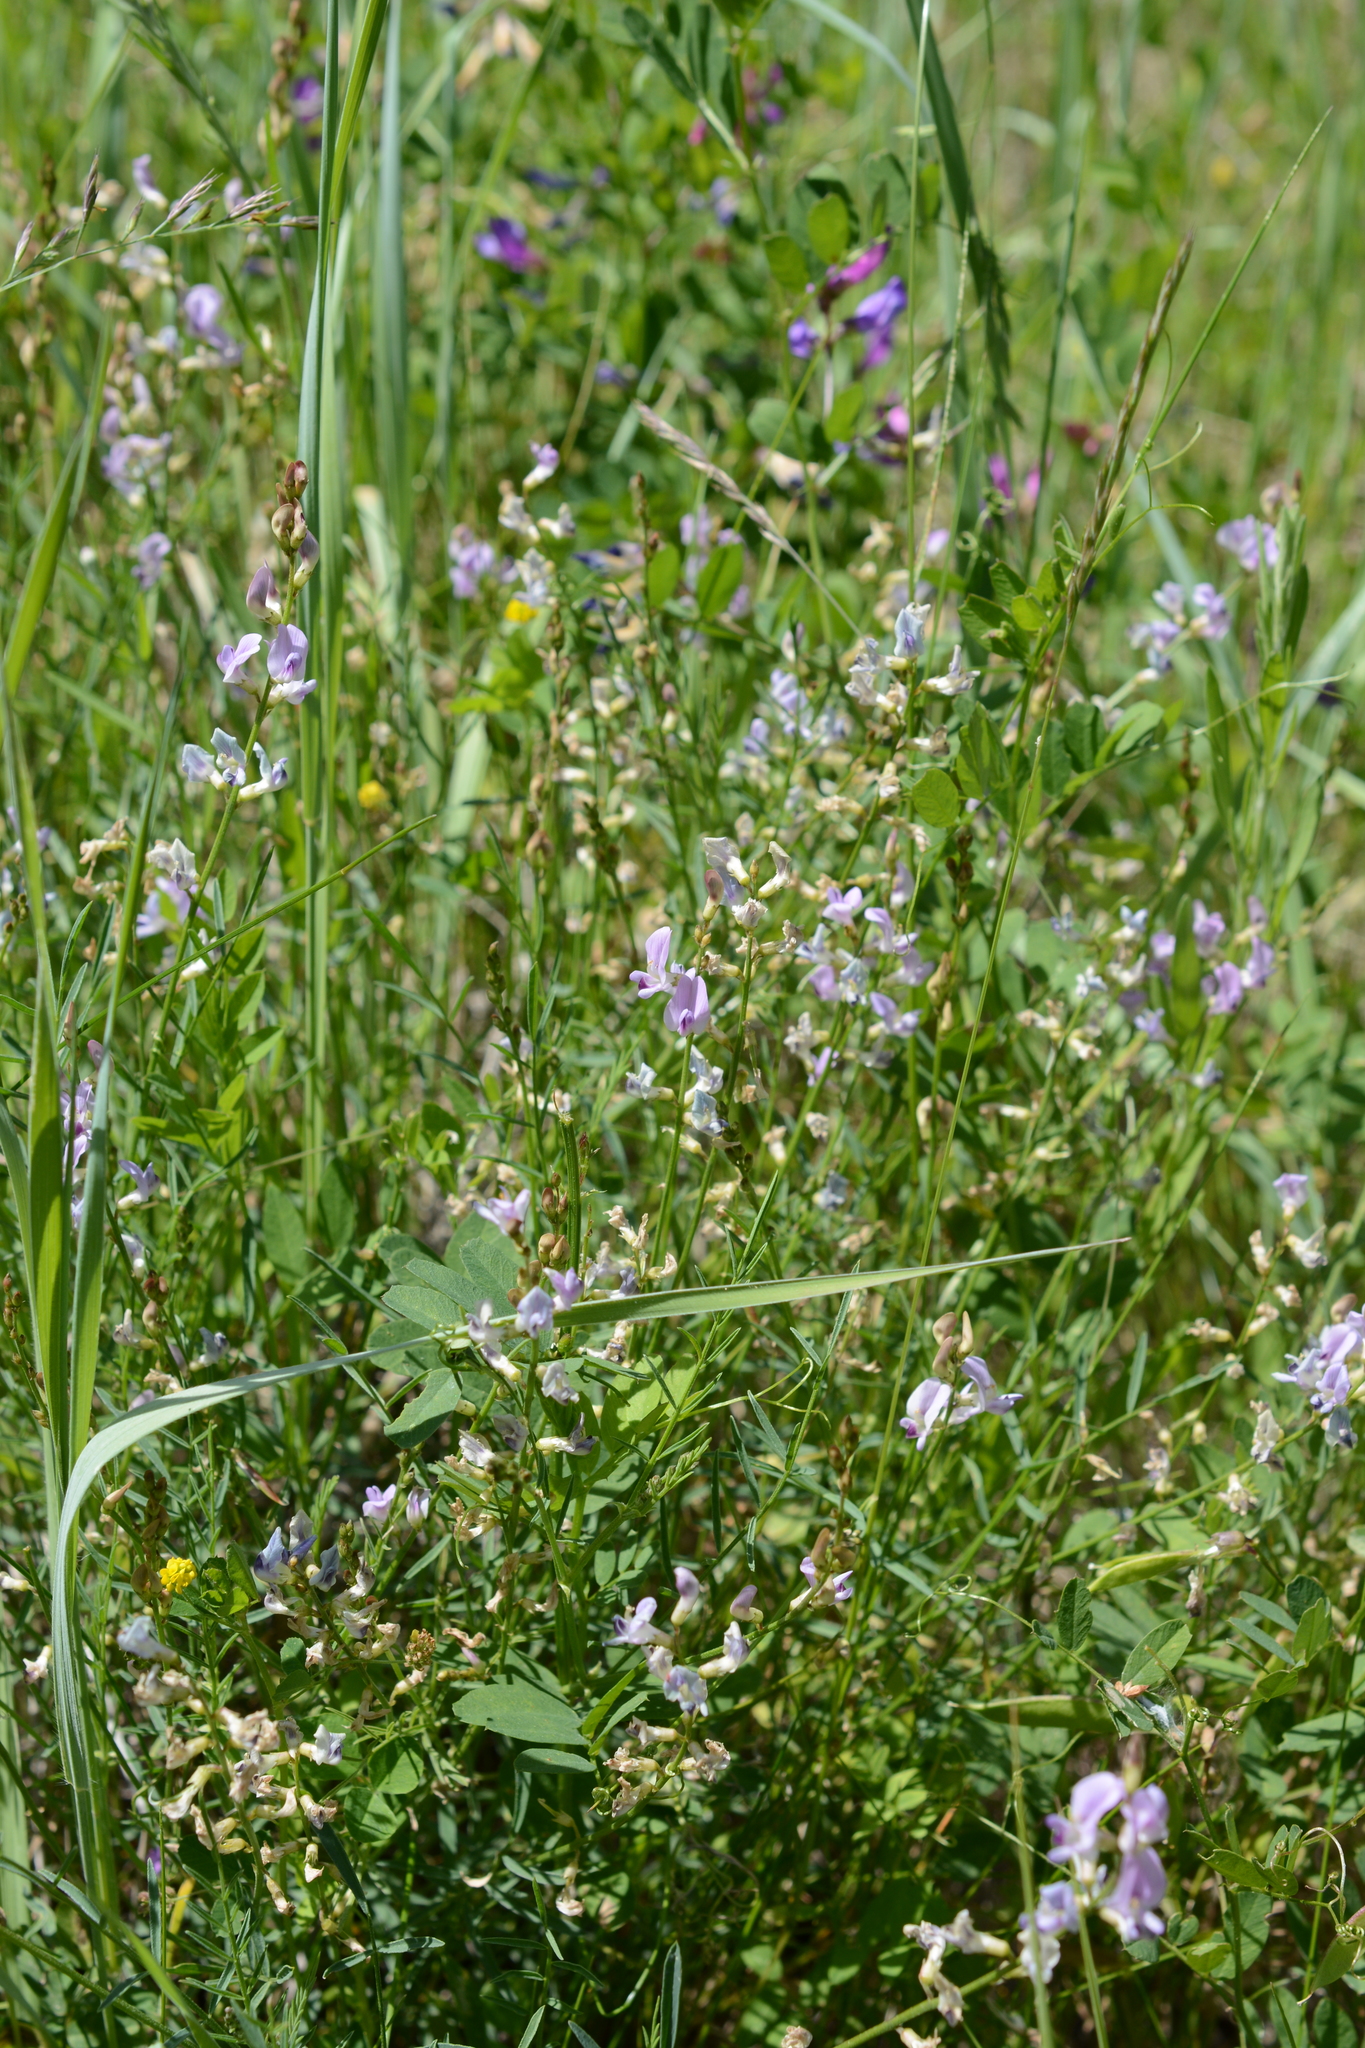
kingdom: Plantae
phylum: Tracheophyta
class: Magnoliopsida
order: Fabales
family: Fabaceae
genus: Astragalus
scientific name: Astragalus miser
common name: Timber milkvetch
